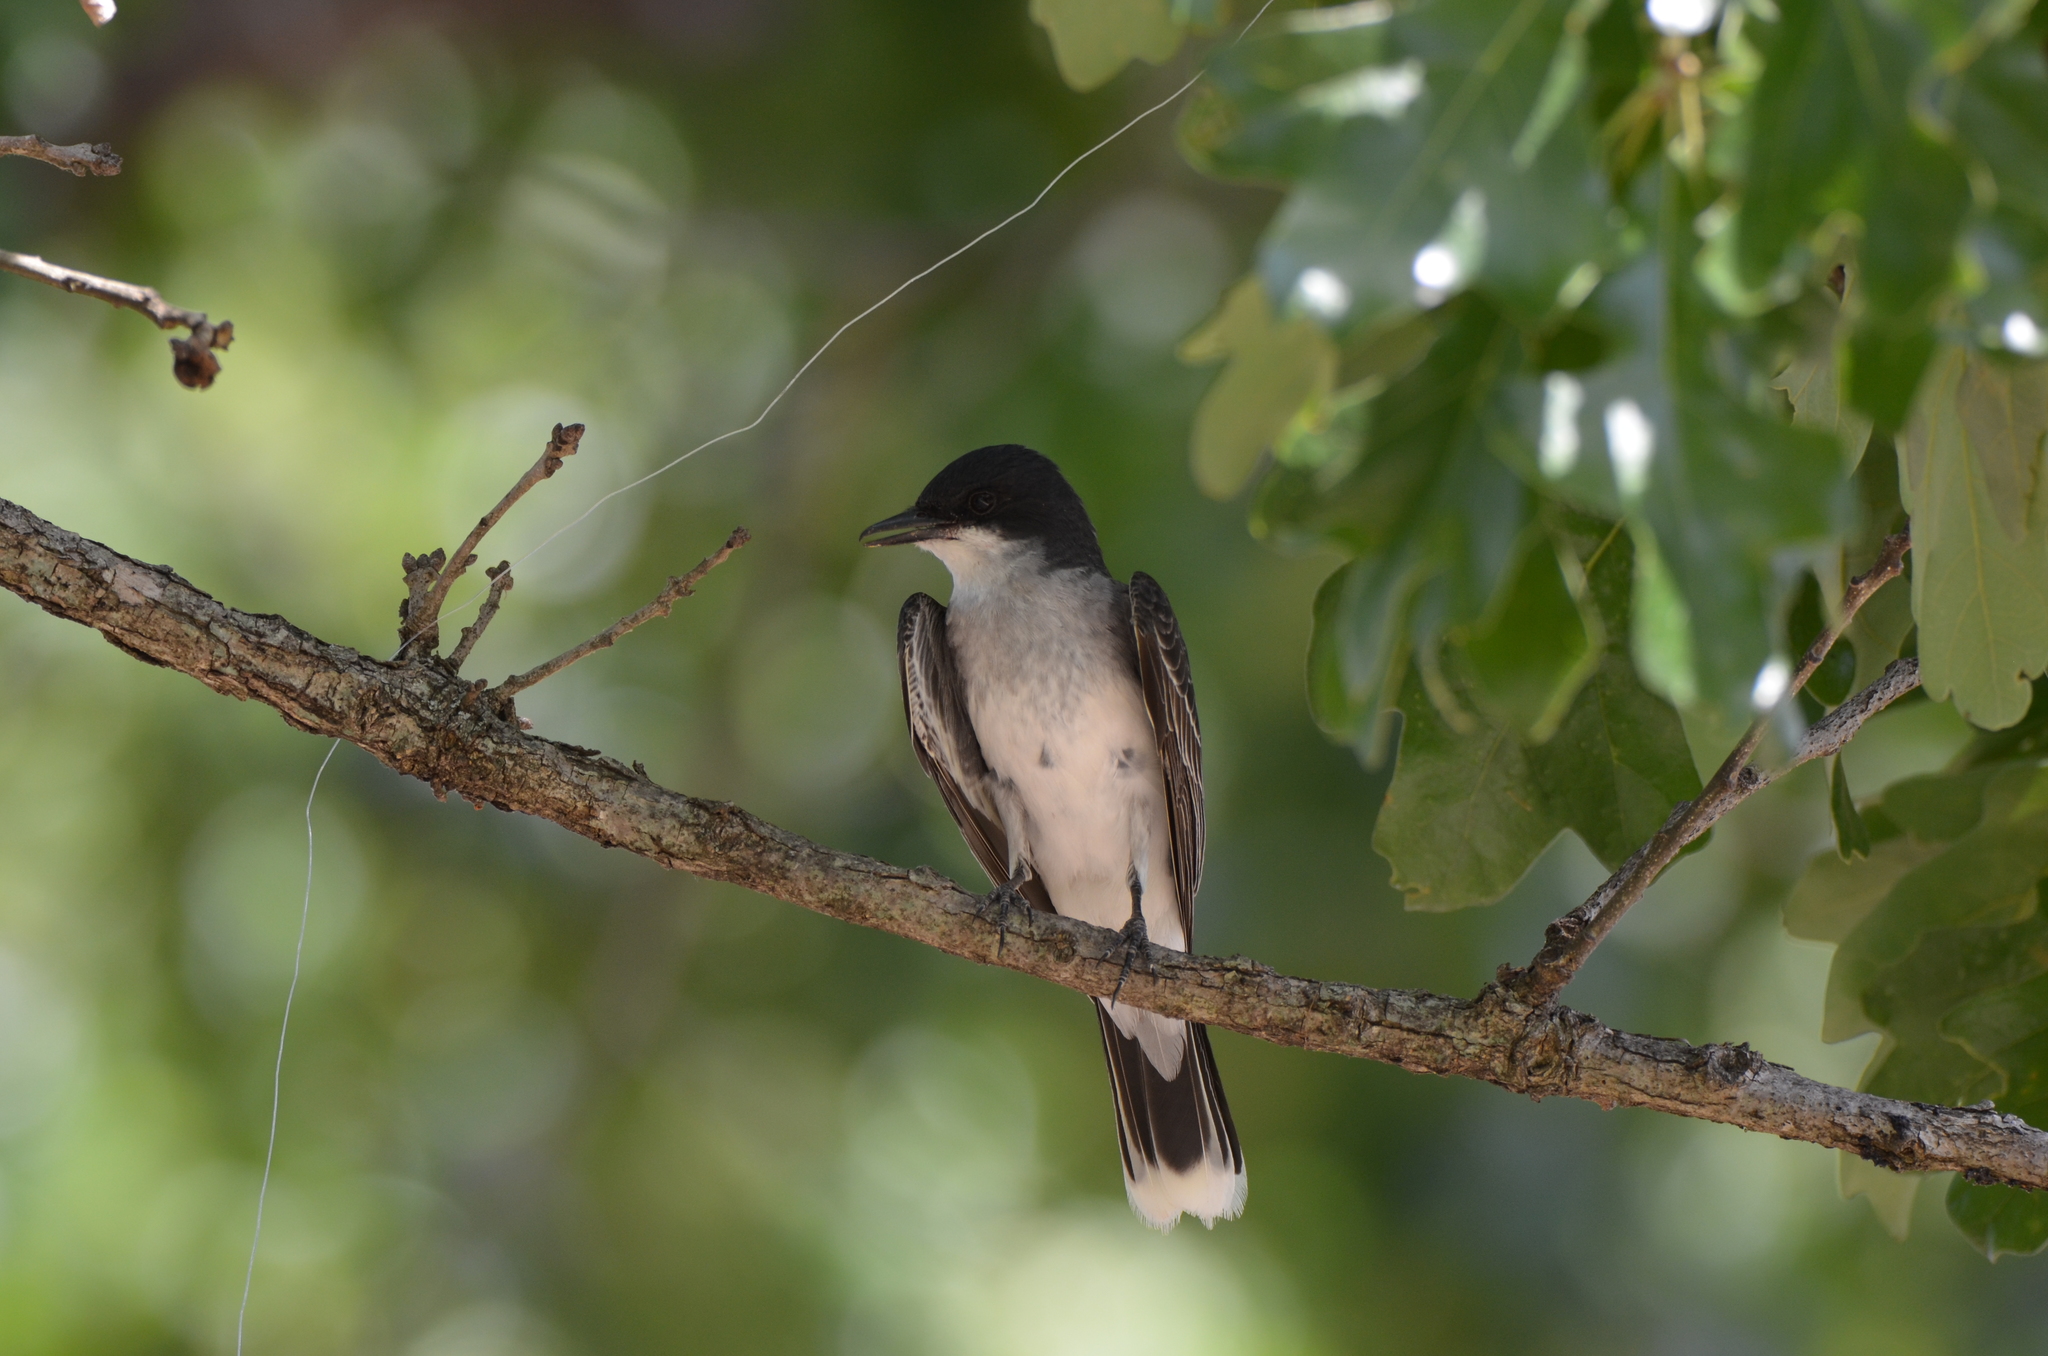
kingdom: Animalia
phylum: Chordata
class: Aves
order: Passeriformes
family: Tyrannidae
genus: Tyrannus
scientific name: Tyrannus tyrannus
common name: Eastern kingbird
